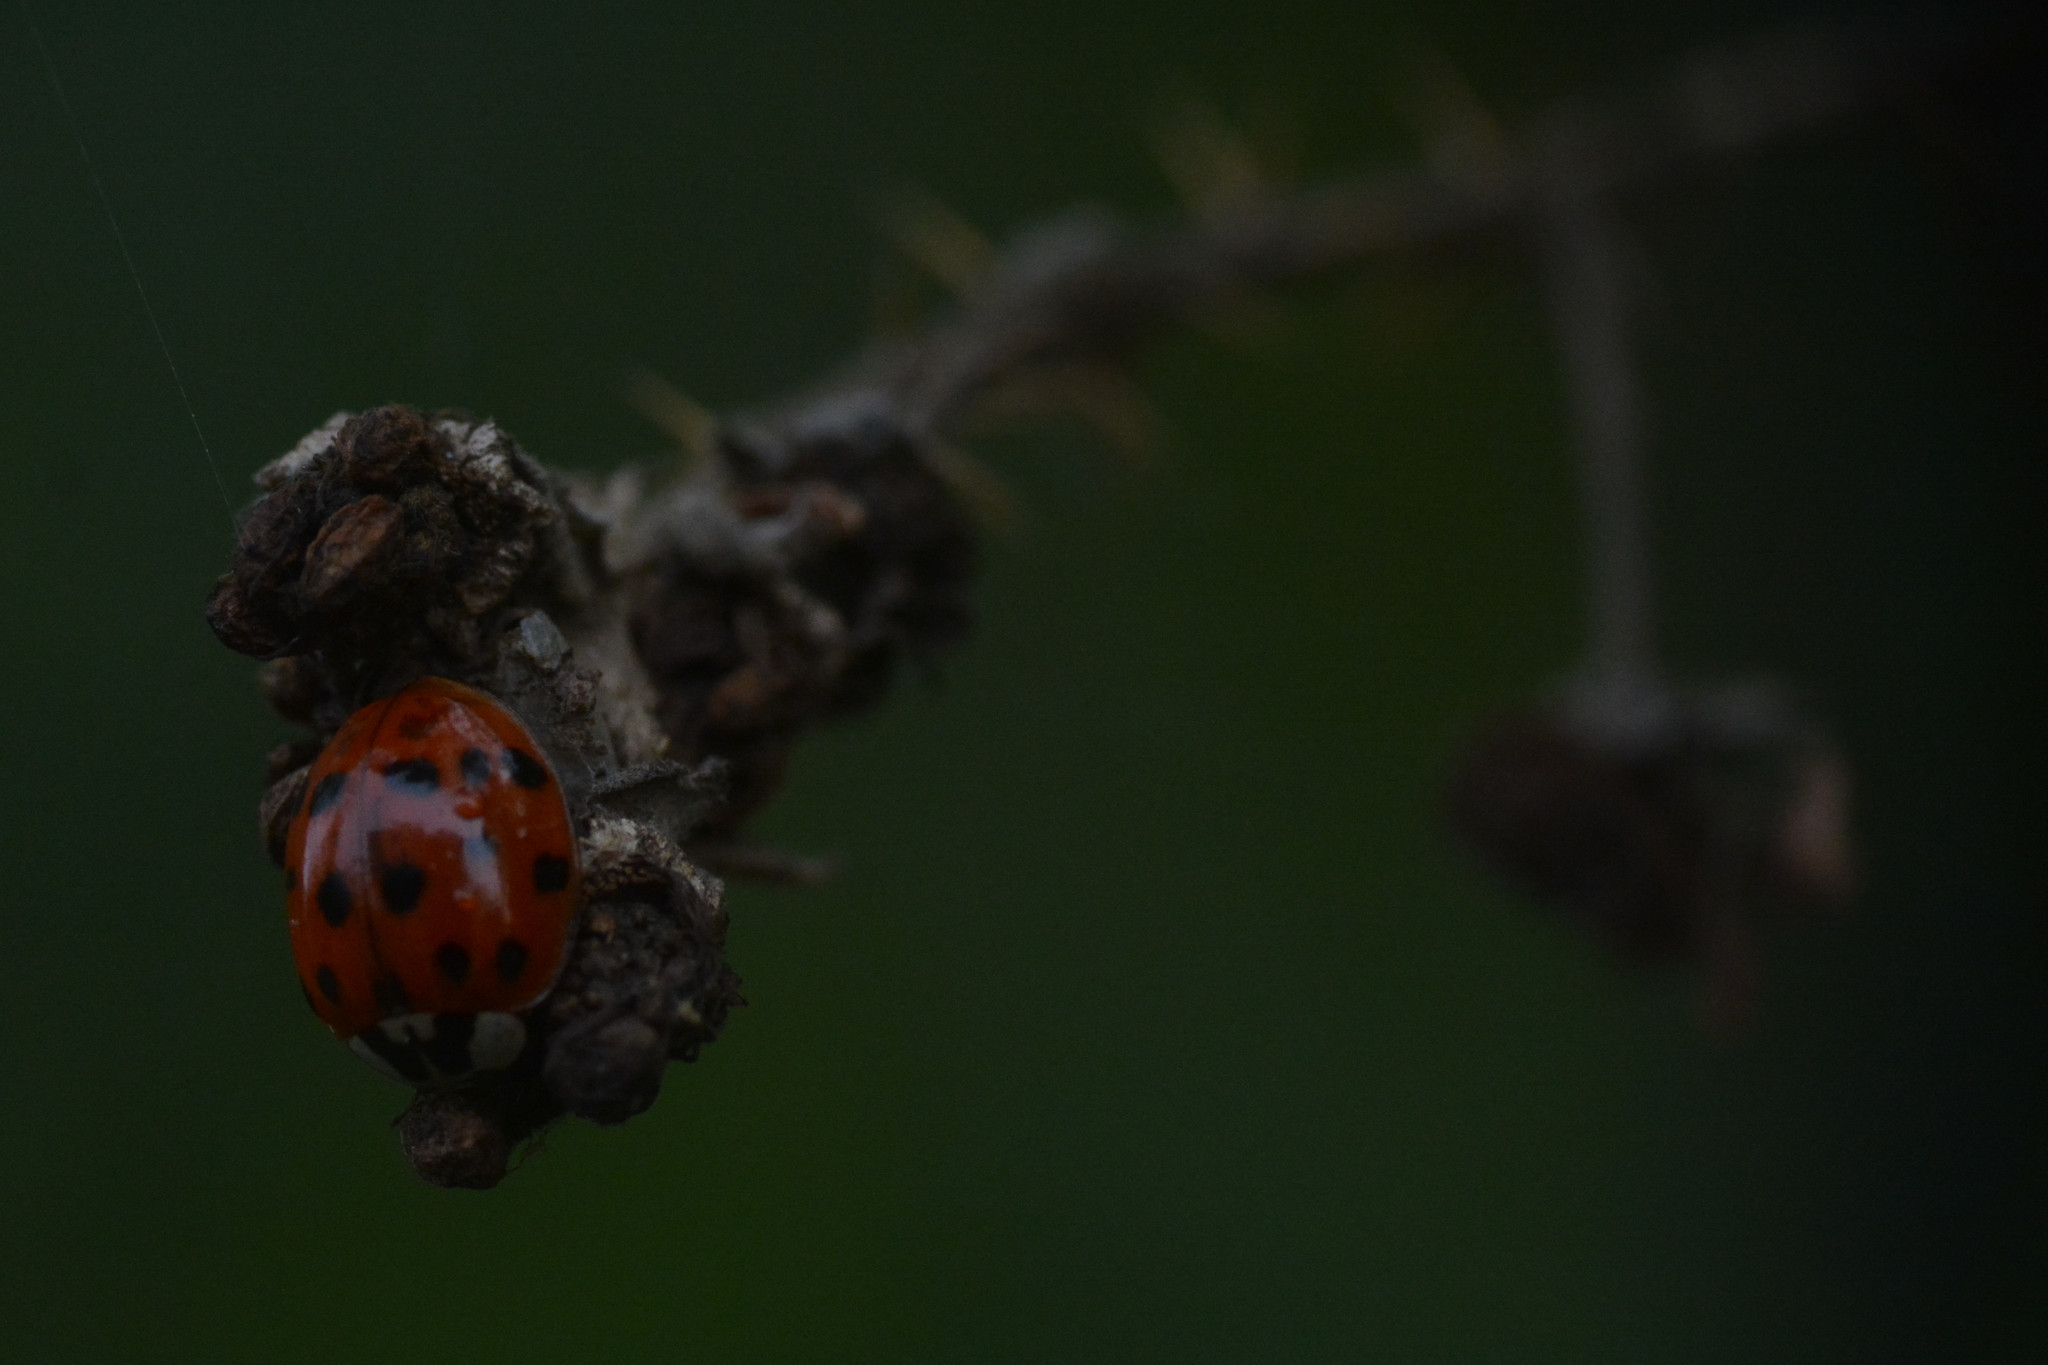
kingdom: Animalia
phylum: Arthropoda
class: Insecta
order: Coleoptera
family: Coccinellidae
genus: Harmonia
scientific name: Harmonia axyridis
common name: Harlequin ladybird
